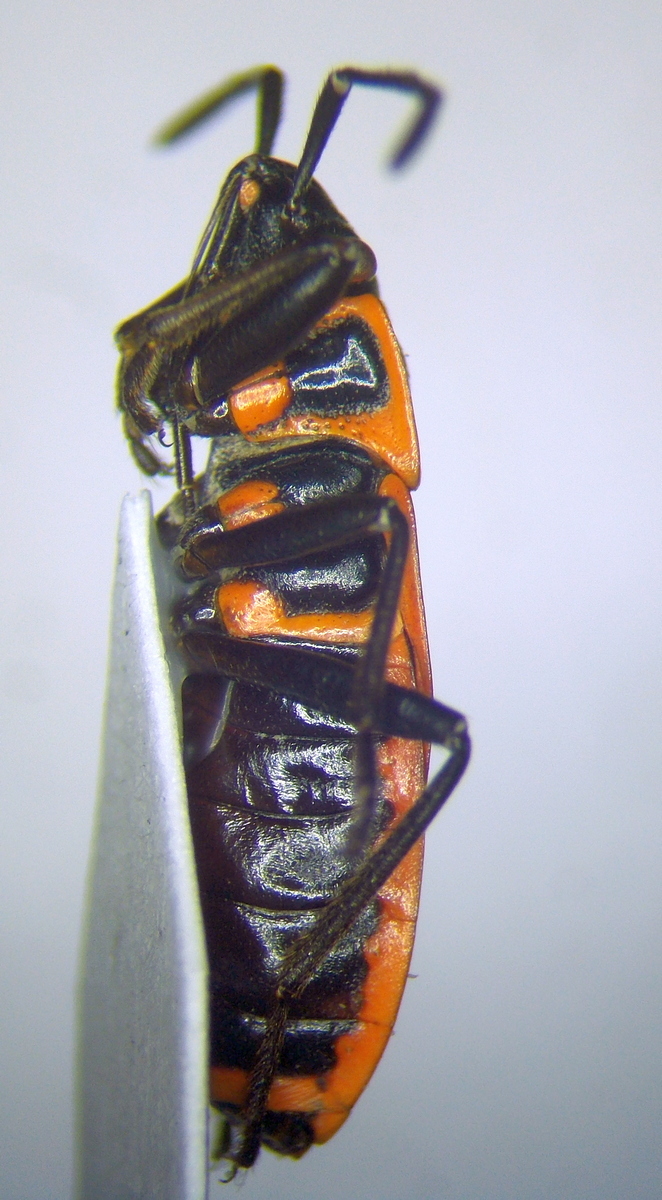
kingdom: Animalia
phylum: Arthropoda
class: Insecta
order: Hemiptera
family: Pyrrhocoridae
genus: Pyrrhocoris
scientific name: Pyrrhocoris apterus
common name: Firebug
